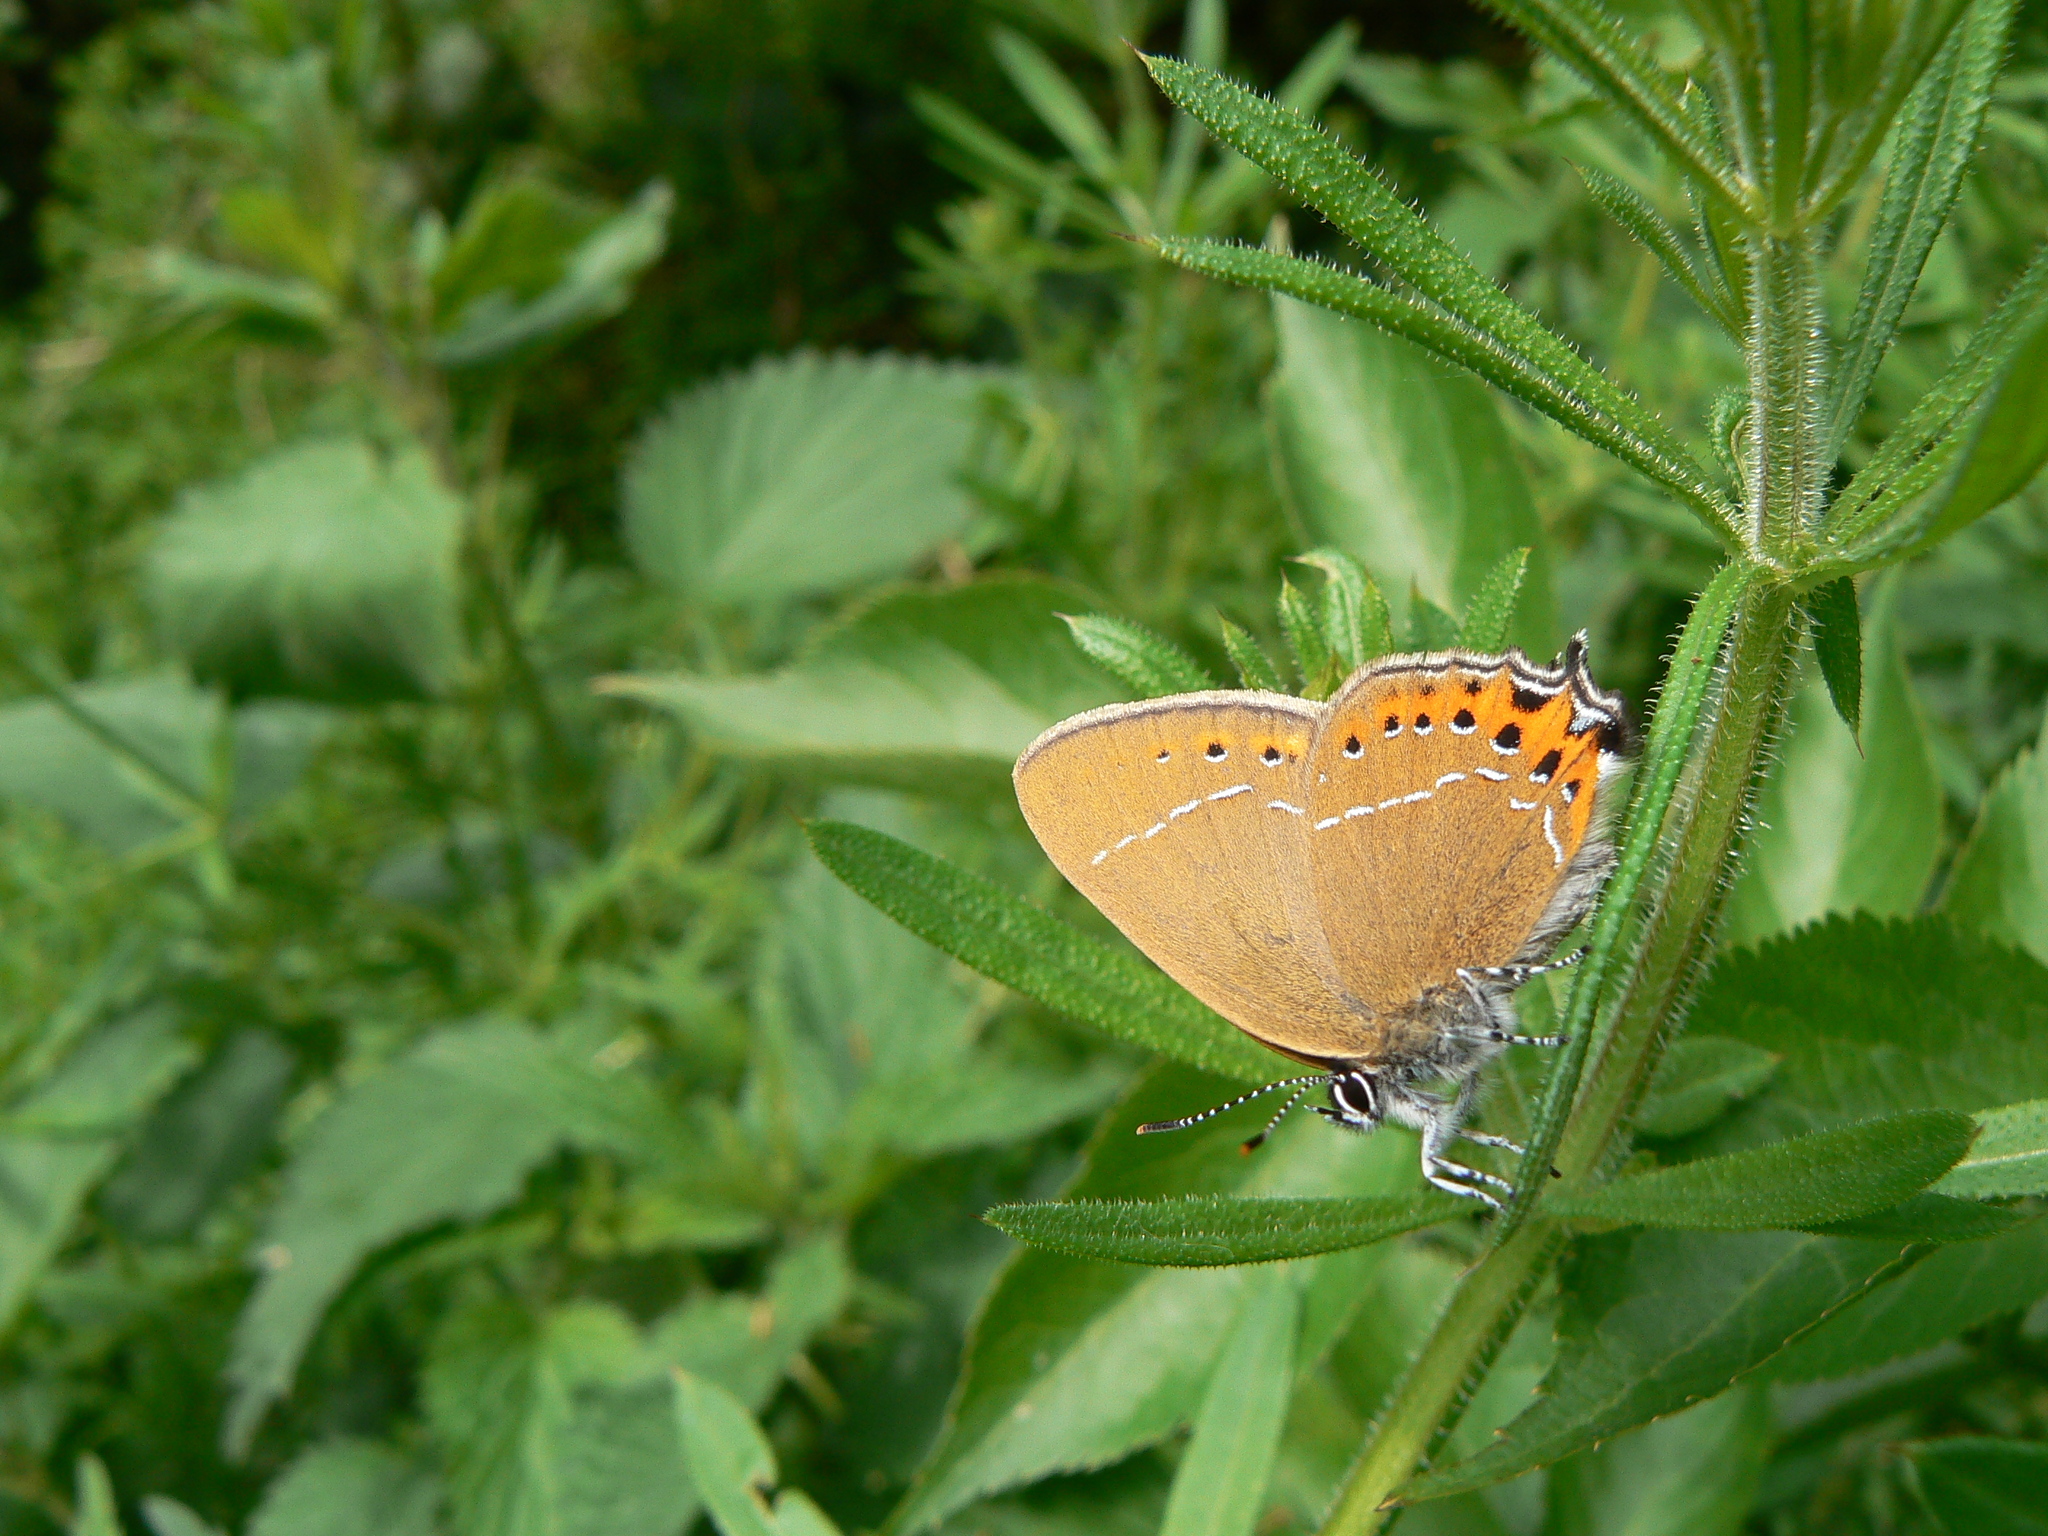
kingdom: Animalia
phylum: Arthropoda
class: Insecta
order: Lepidoptera
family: Lycaenidae
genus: Fixsenia
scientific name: Fixsenia pruni
